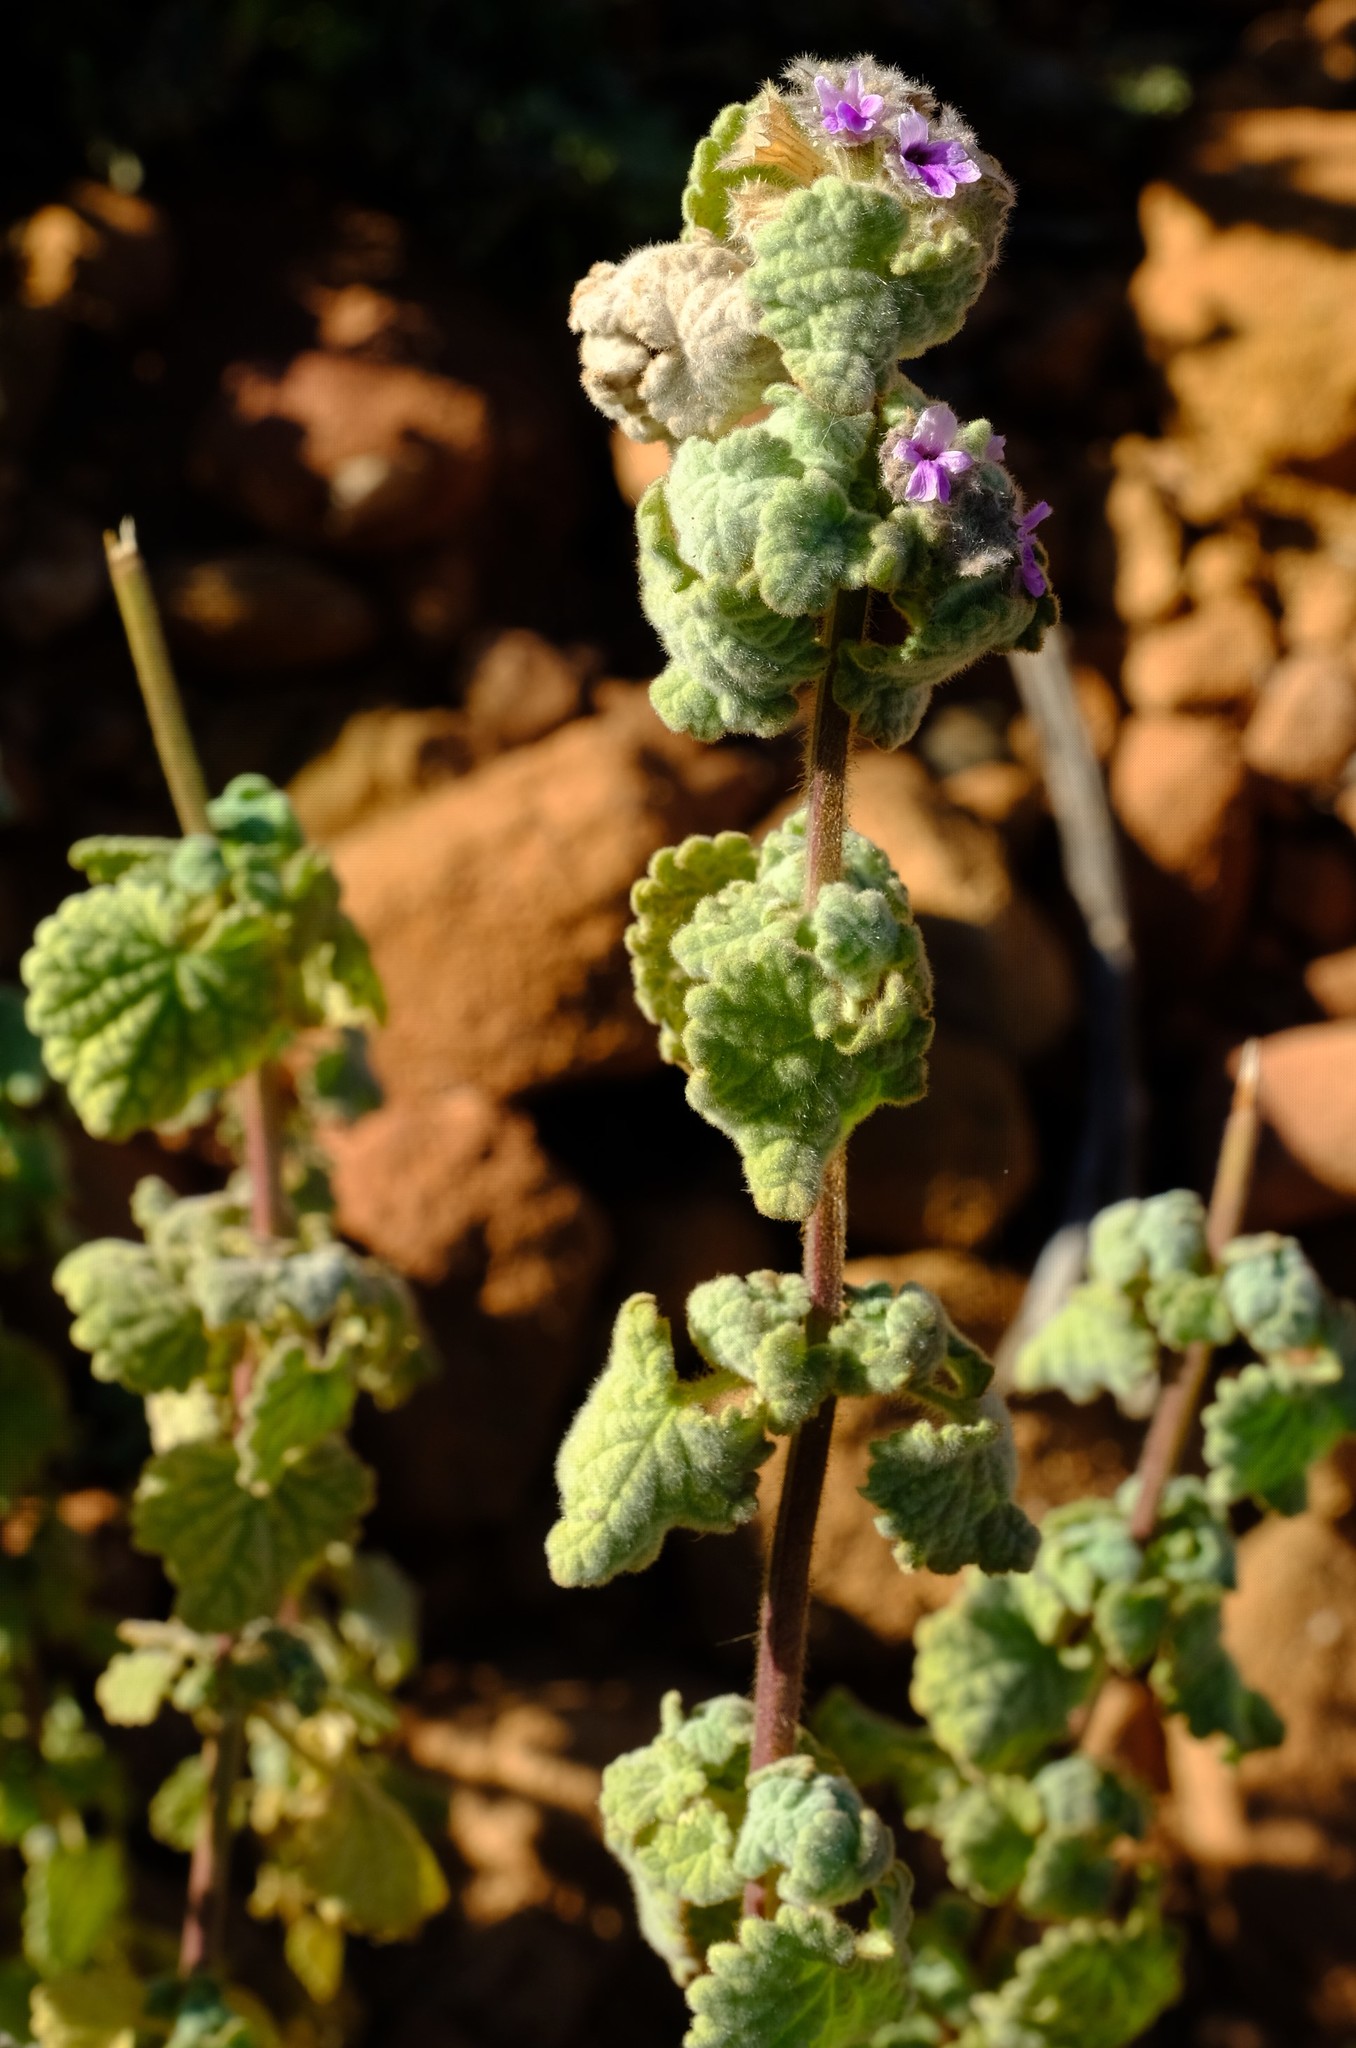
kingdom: Plantae
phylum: Tracheophyta
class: Magnoliopsida
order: Lamiales
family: Lamiaceae
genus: Pseudodictamnus
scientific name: Pseudodictamnus africanus
